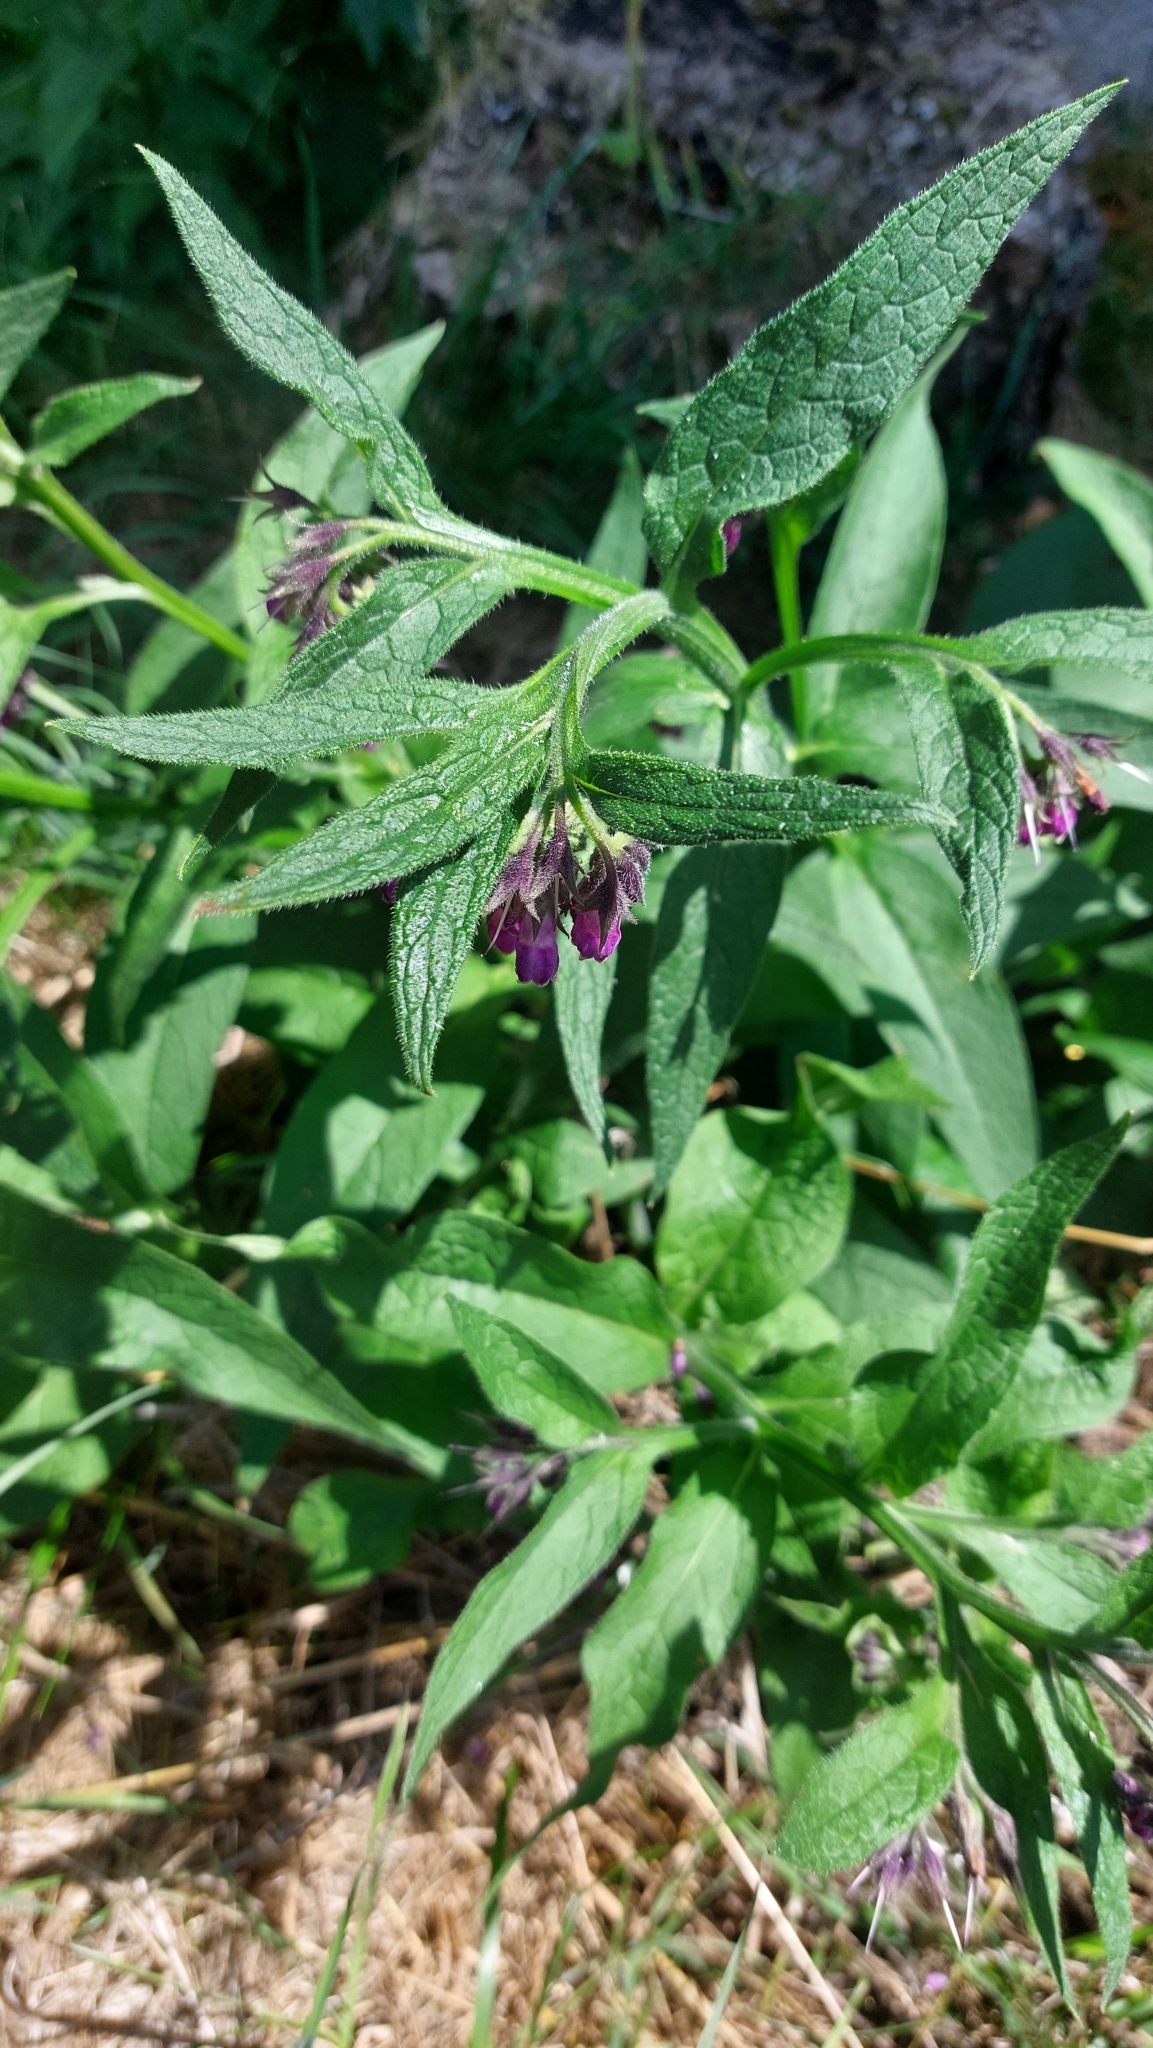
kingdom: Plantae
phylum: Tracheophyta
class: Magnoliopsida
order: Boraginales
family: Boraginaceae
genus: Symphytum
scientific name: Symphytum officinale
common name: Common comfrey
